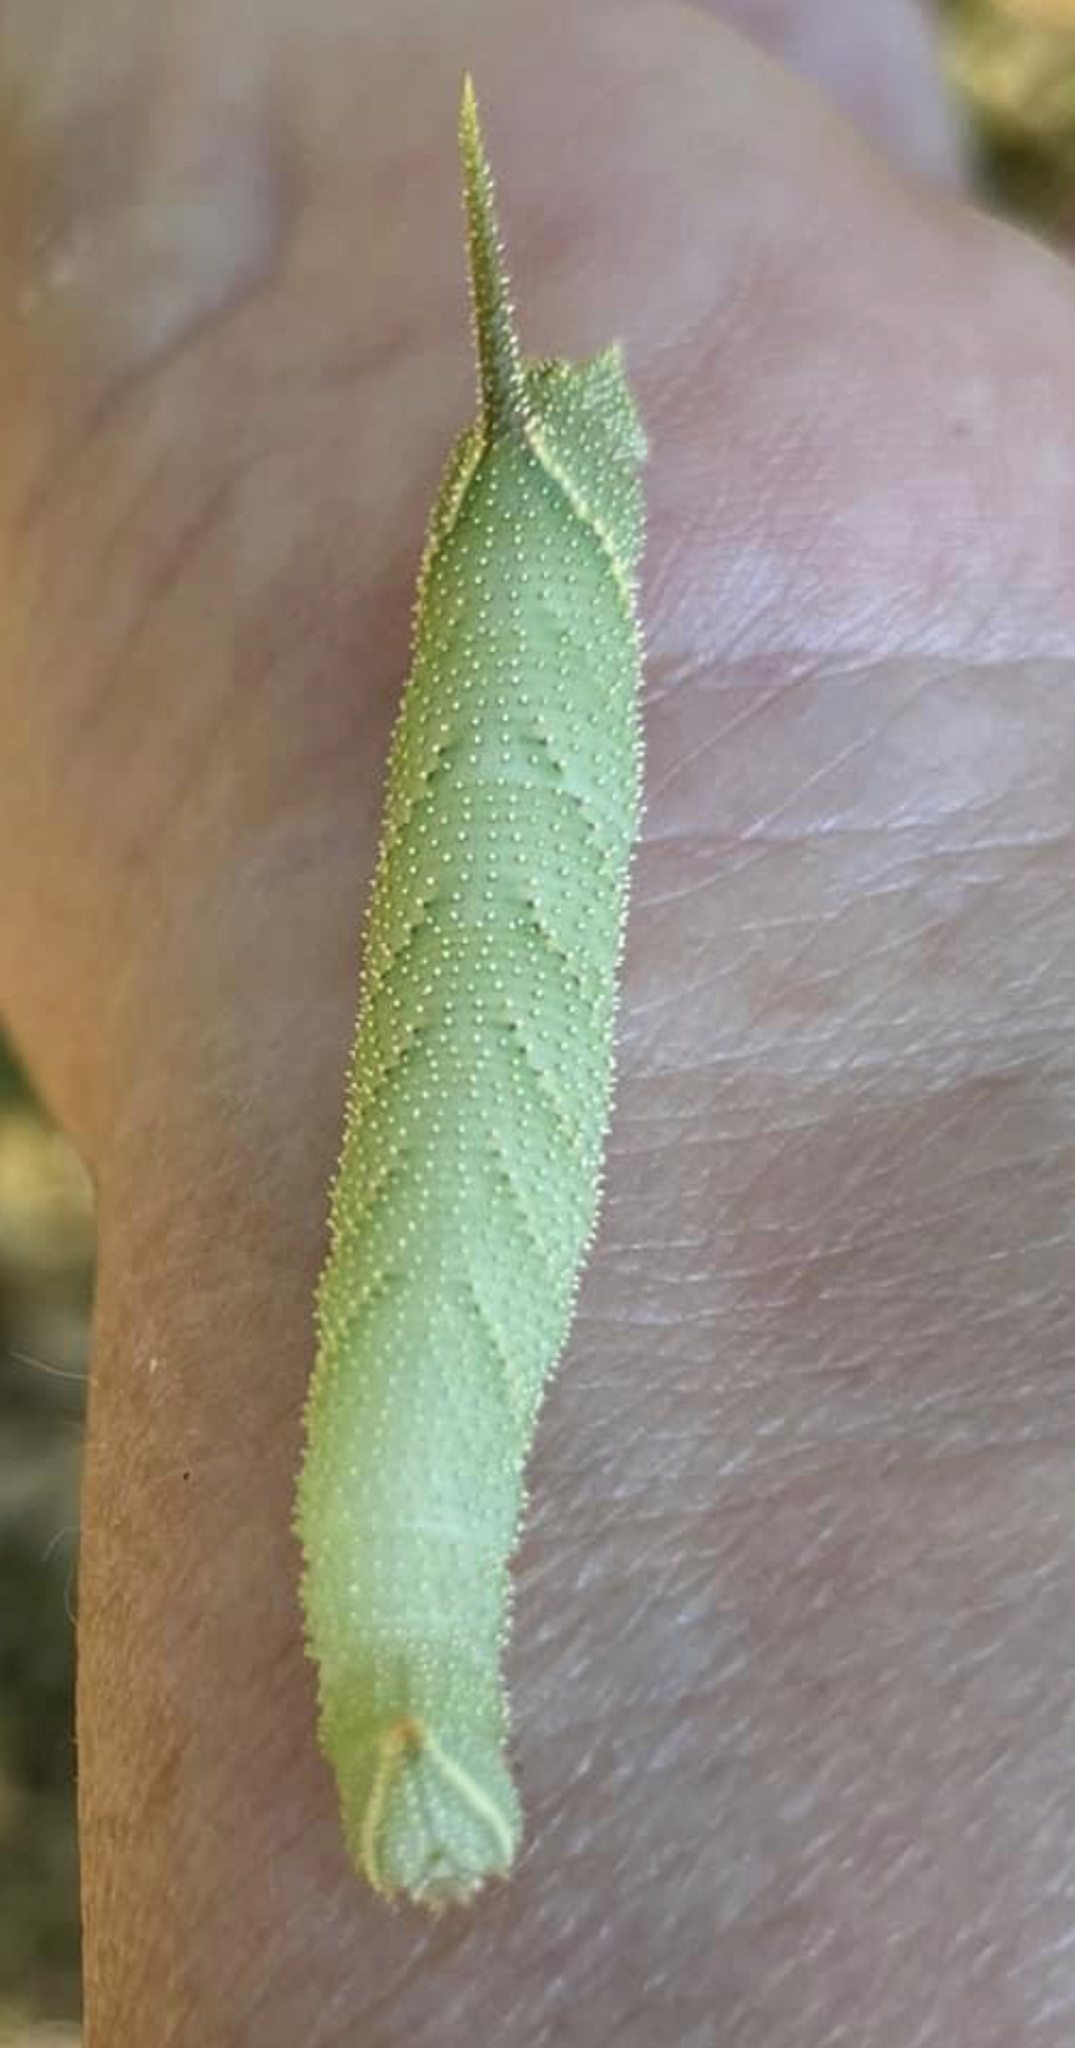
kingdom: Animalia
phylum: Arthropoda
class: Insecta
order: Lepidoptera
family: Sphingidae
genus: Amorpha
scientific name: Amorpha juglandis
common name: Walnut sphinx
